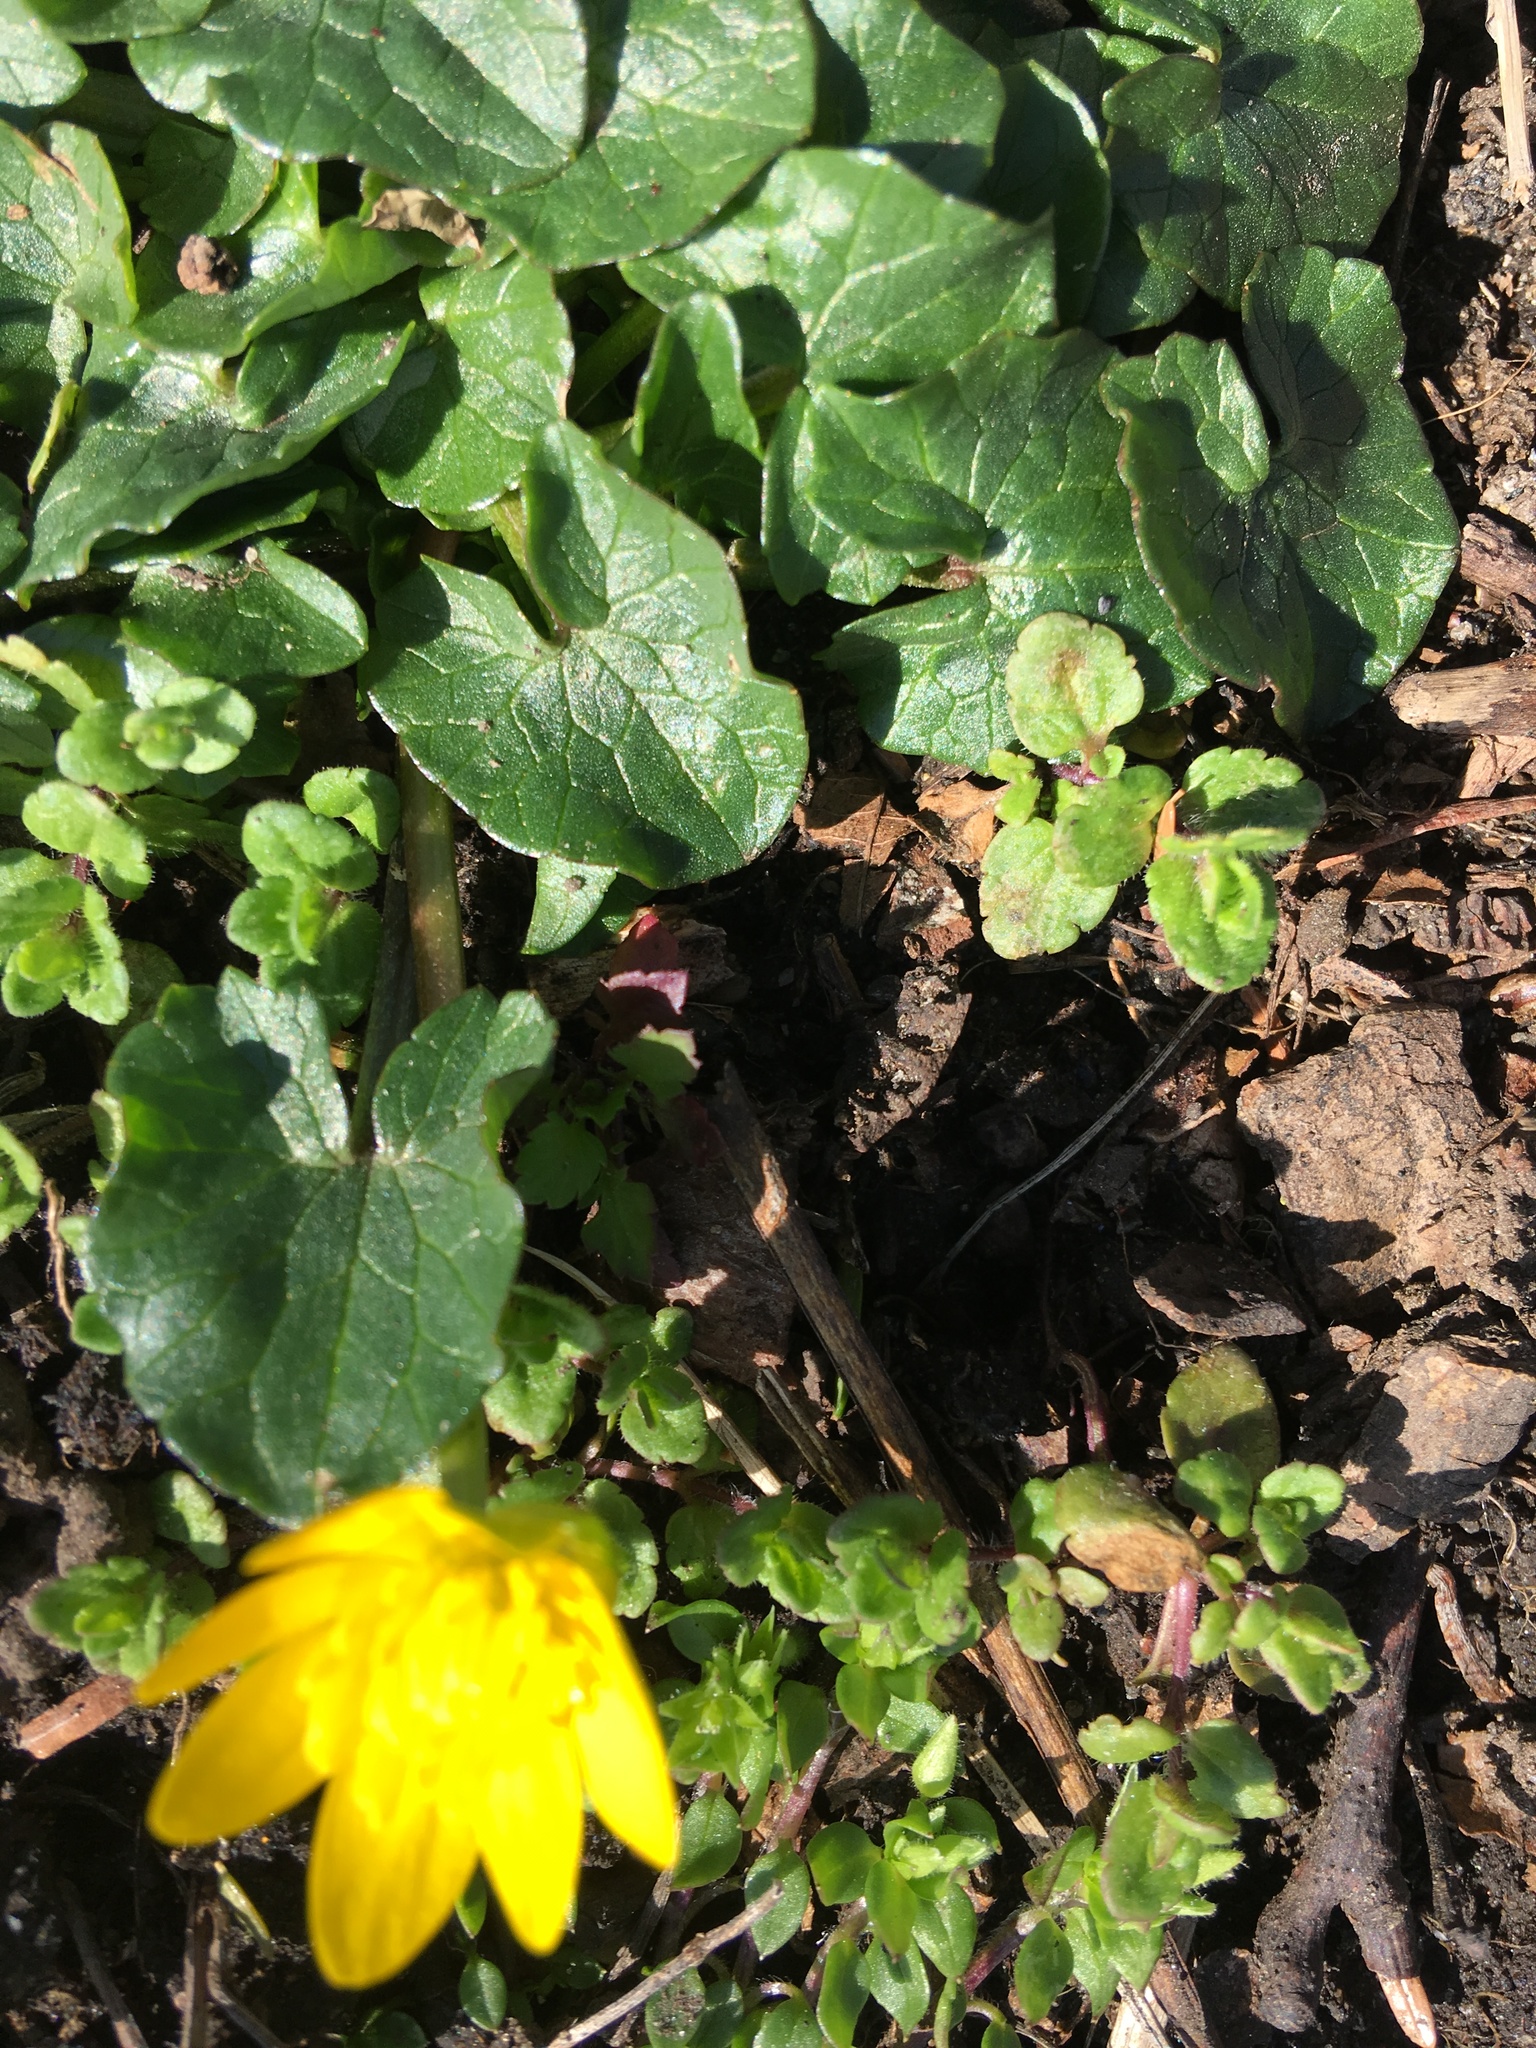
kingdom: Plantae
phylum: Tracheophyta
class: Magnoliopsida
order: Ranunculales
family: Ranunculaceae
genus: Ficaria
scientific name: Ficaria verna
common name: Lesser celandine
